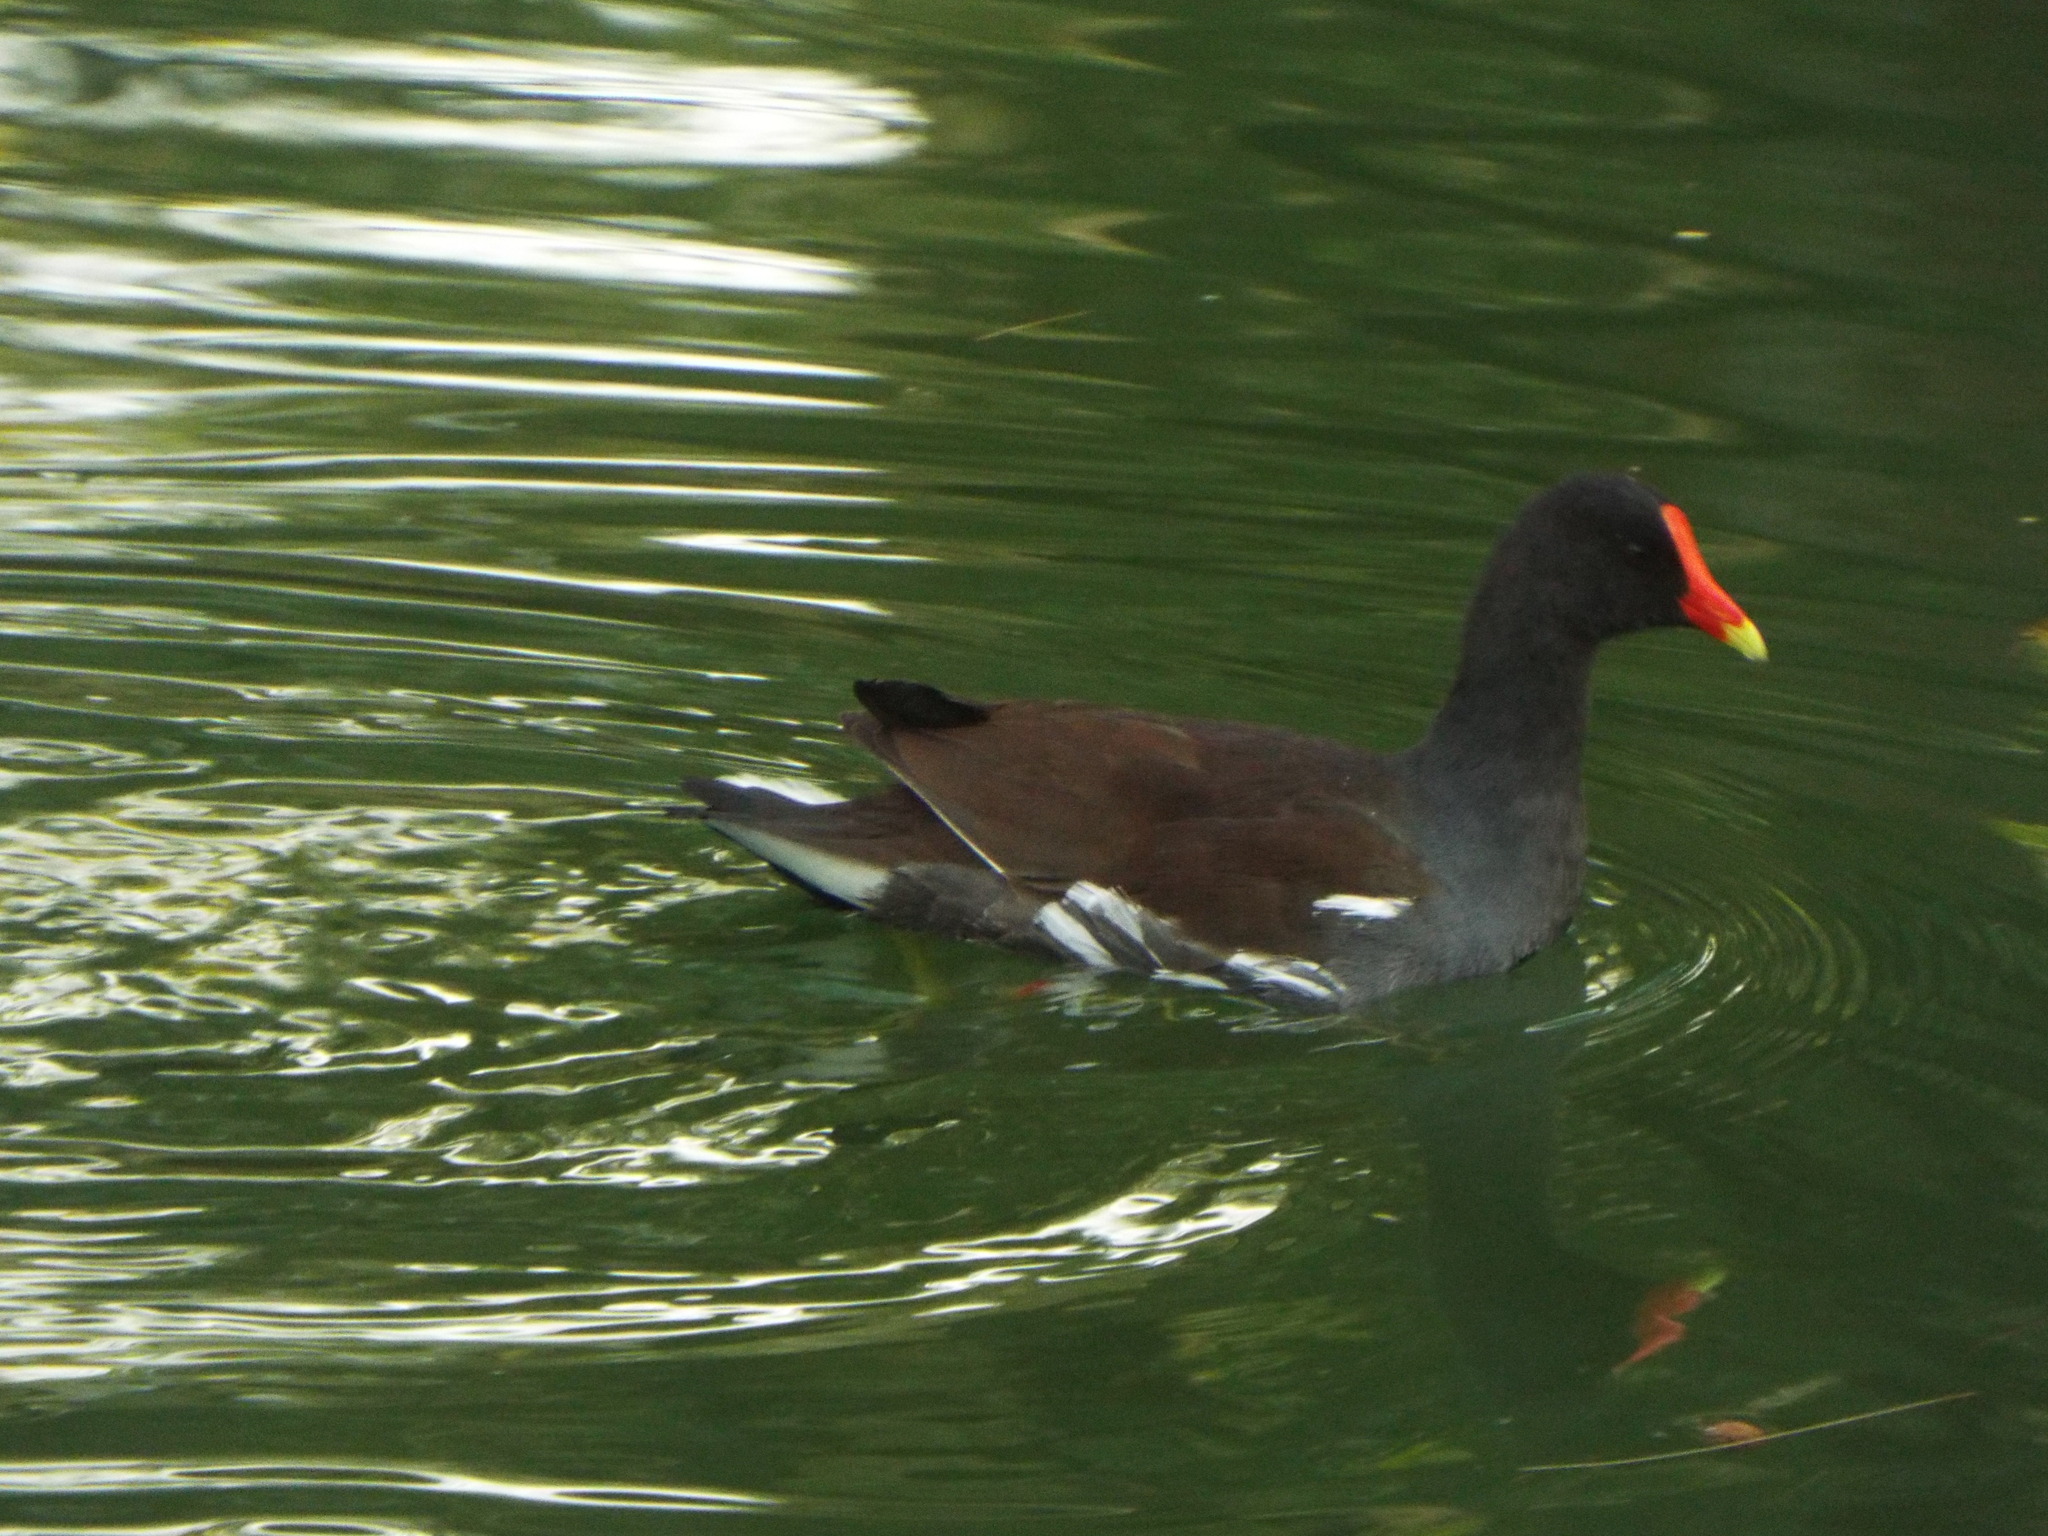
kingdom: Animalia
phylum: Chordata
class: Aves
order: Gruiformes
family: Rallidae
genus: Gallinula
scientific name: Gallinula chloropus
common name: Common moorhen
